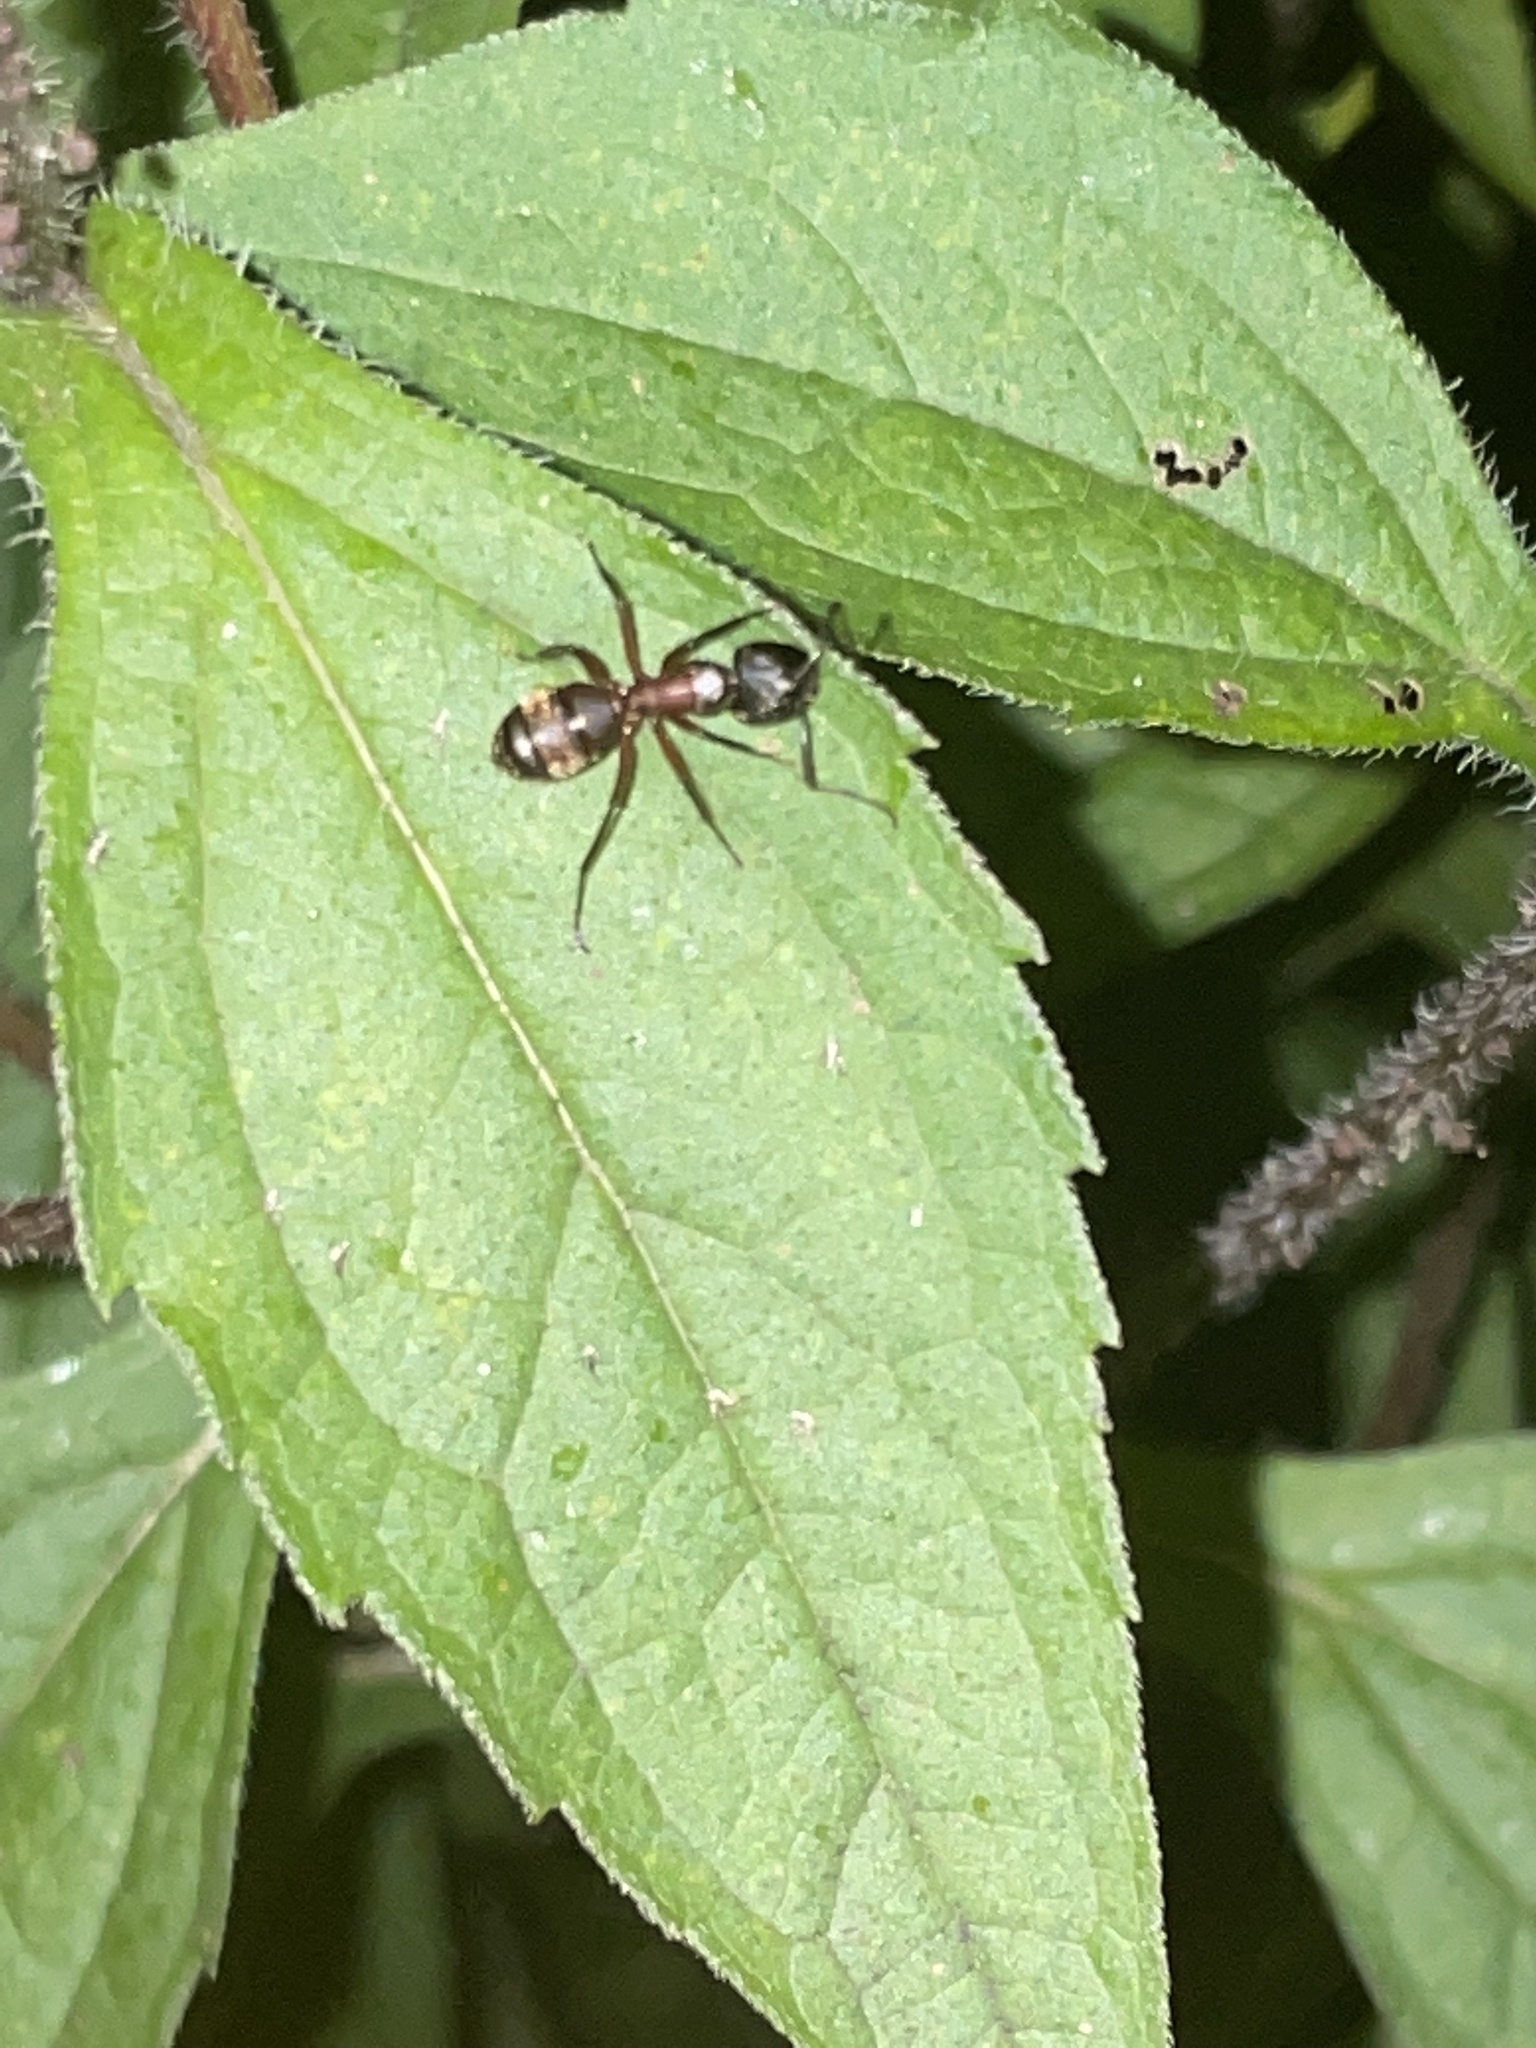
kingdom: Animalia
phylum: Arthropoda
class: Insecta
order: Hymenoptera
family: Formicidae
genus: Camponotus
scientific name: Camponotus chromaiodes
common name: Red carpenter ant
